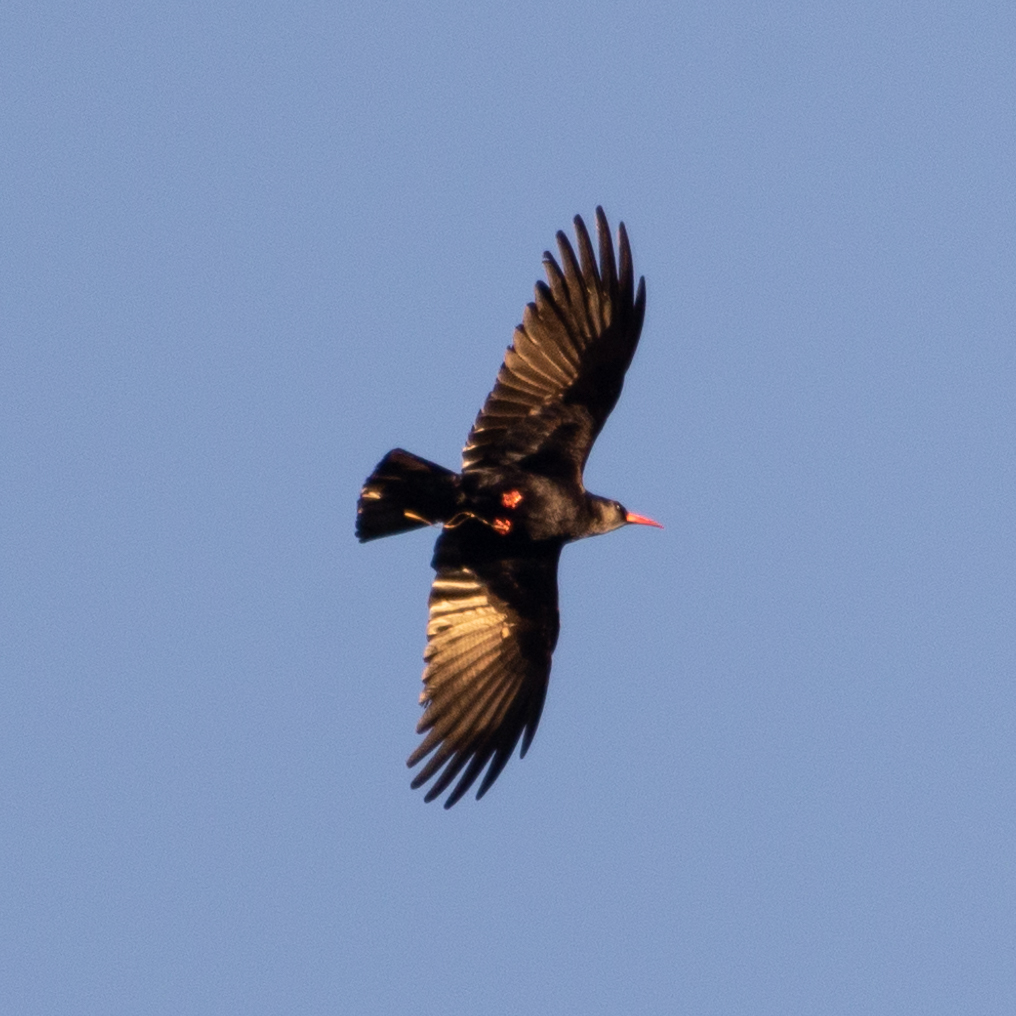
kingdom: Animalia
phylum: Chordata
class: Aves
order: Passeriformes
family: Corvidae
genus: Pyrrhocorax
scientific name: Pyrrhocorax pyrrhocorax
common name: Red-billed chough
